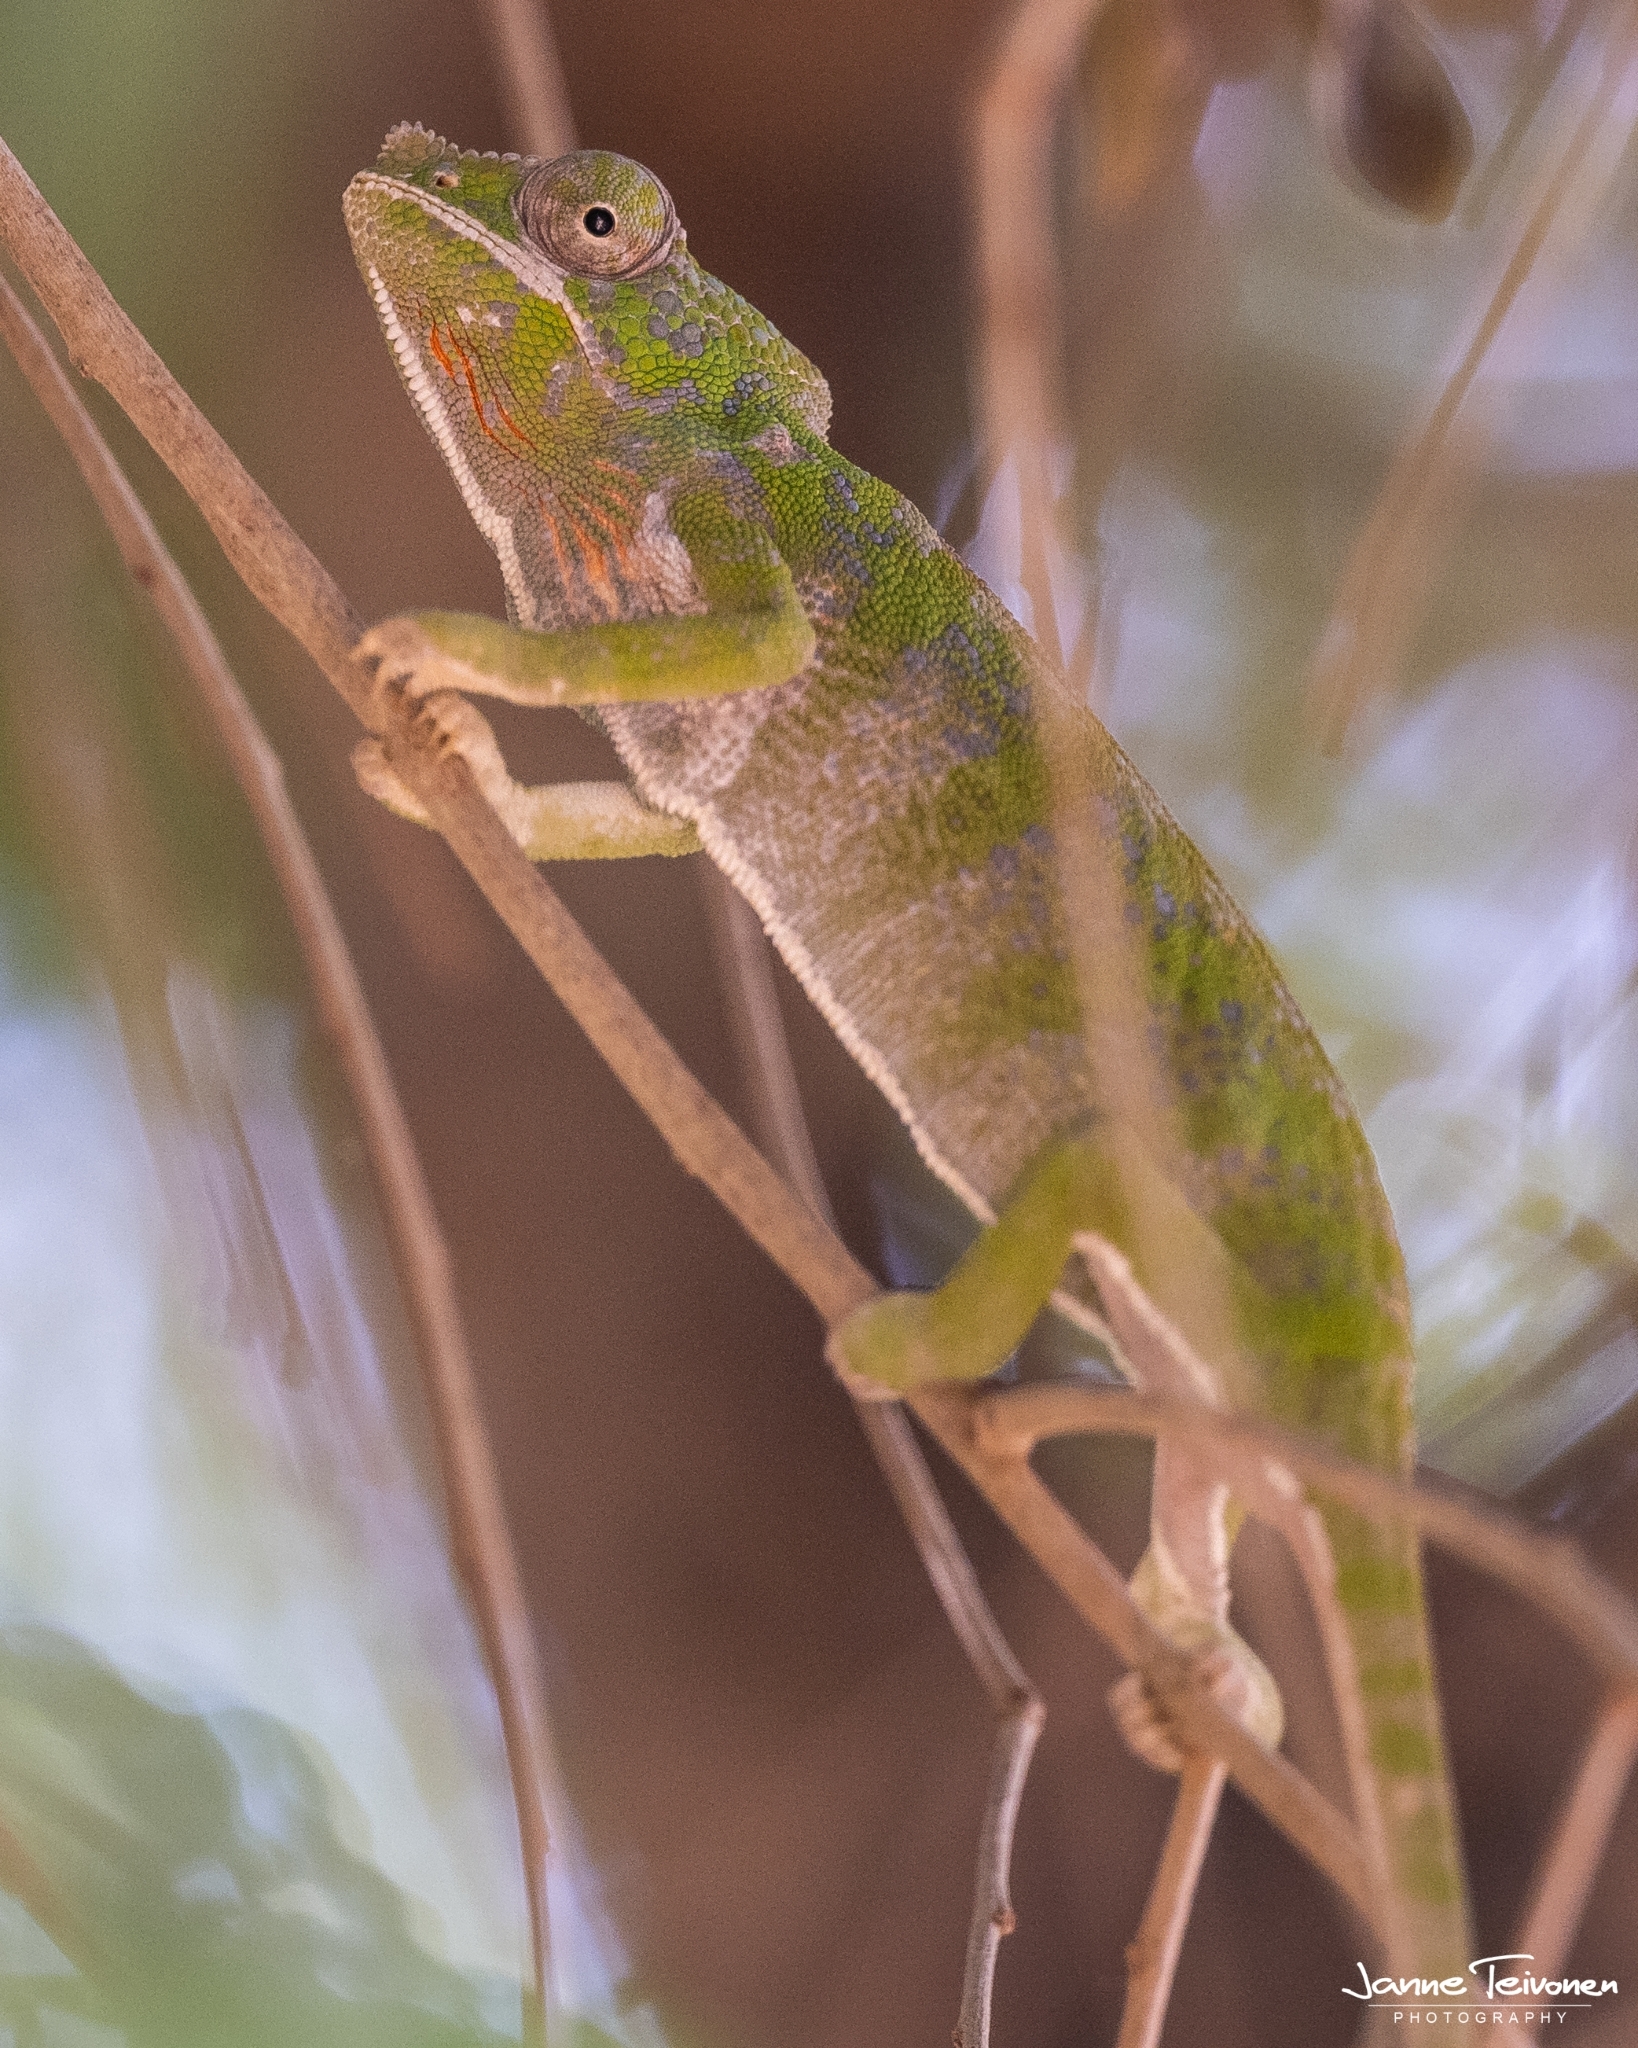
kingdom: Animalia
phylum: Chordata
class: Squamata
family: Chamaeleonidae
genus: Furcifer
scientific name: Furcifer labordi
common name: Laborde's chameleon
